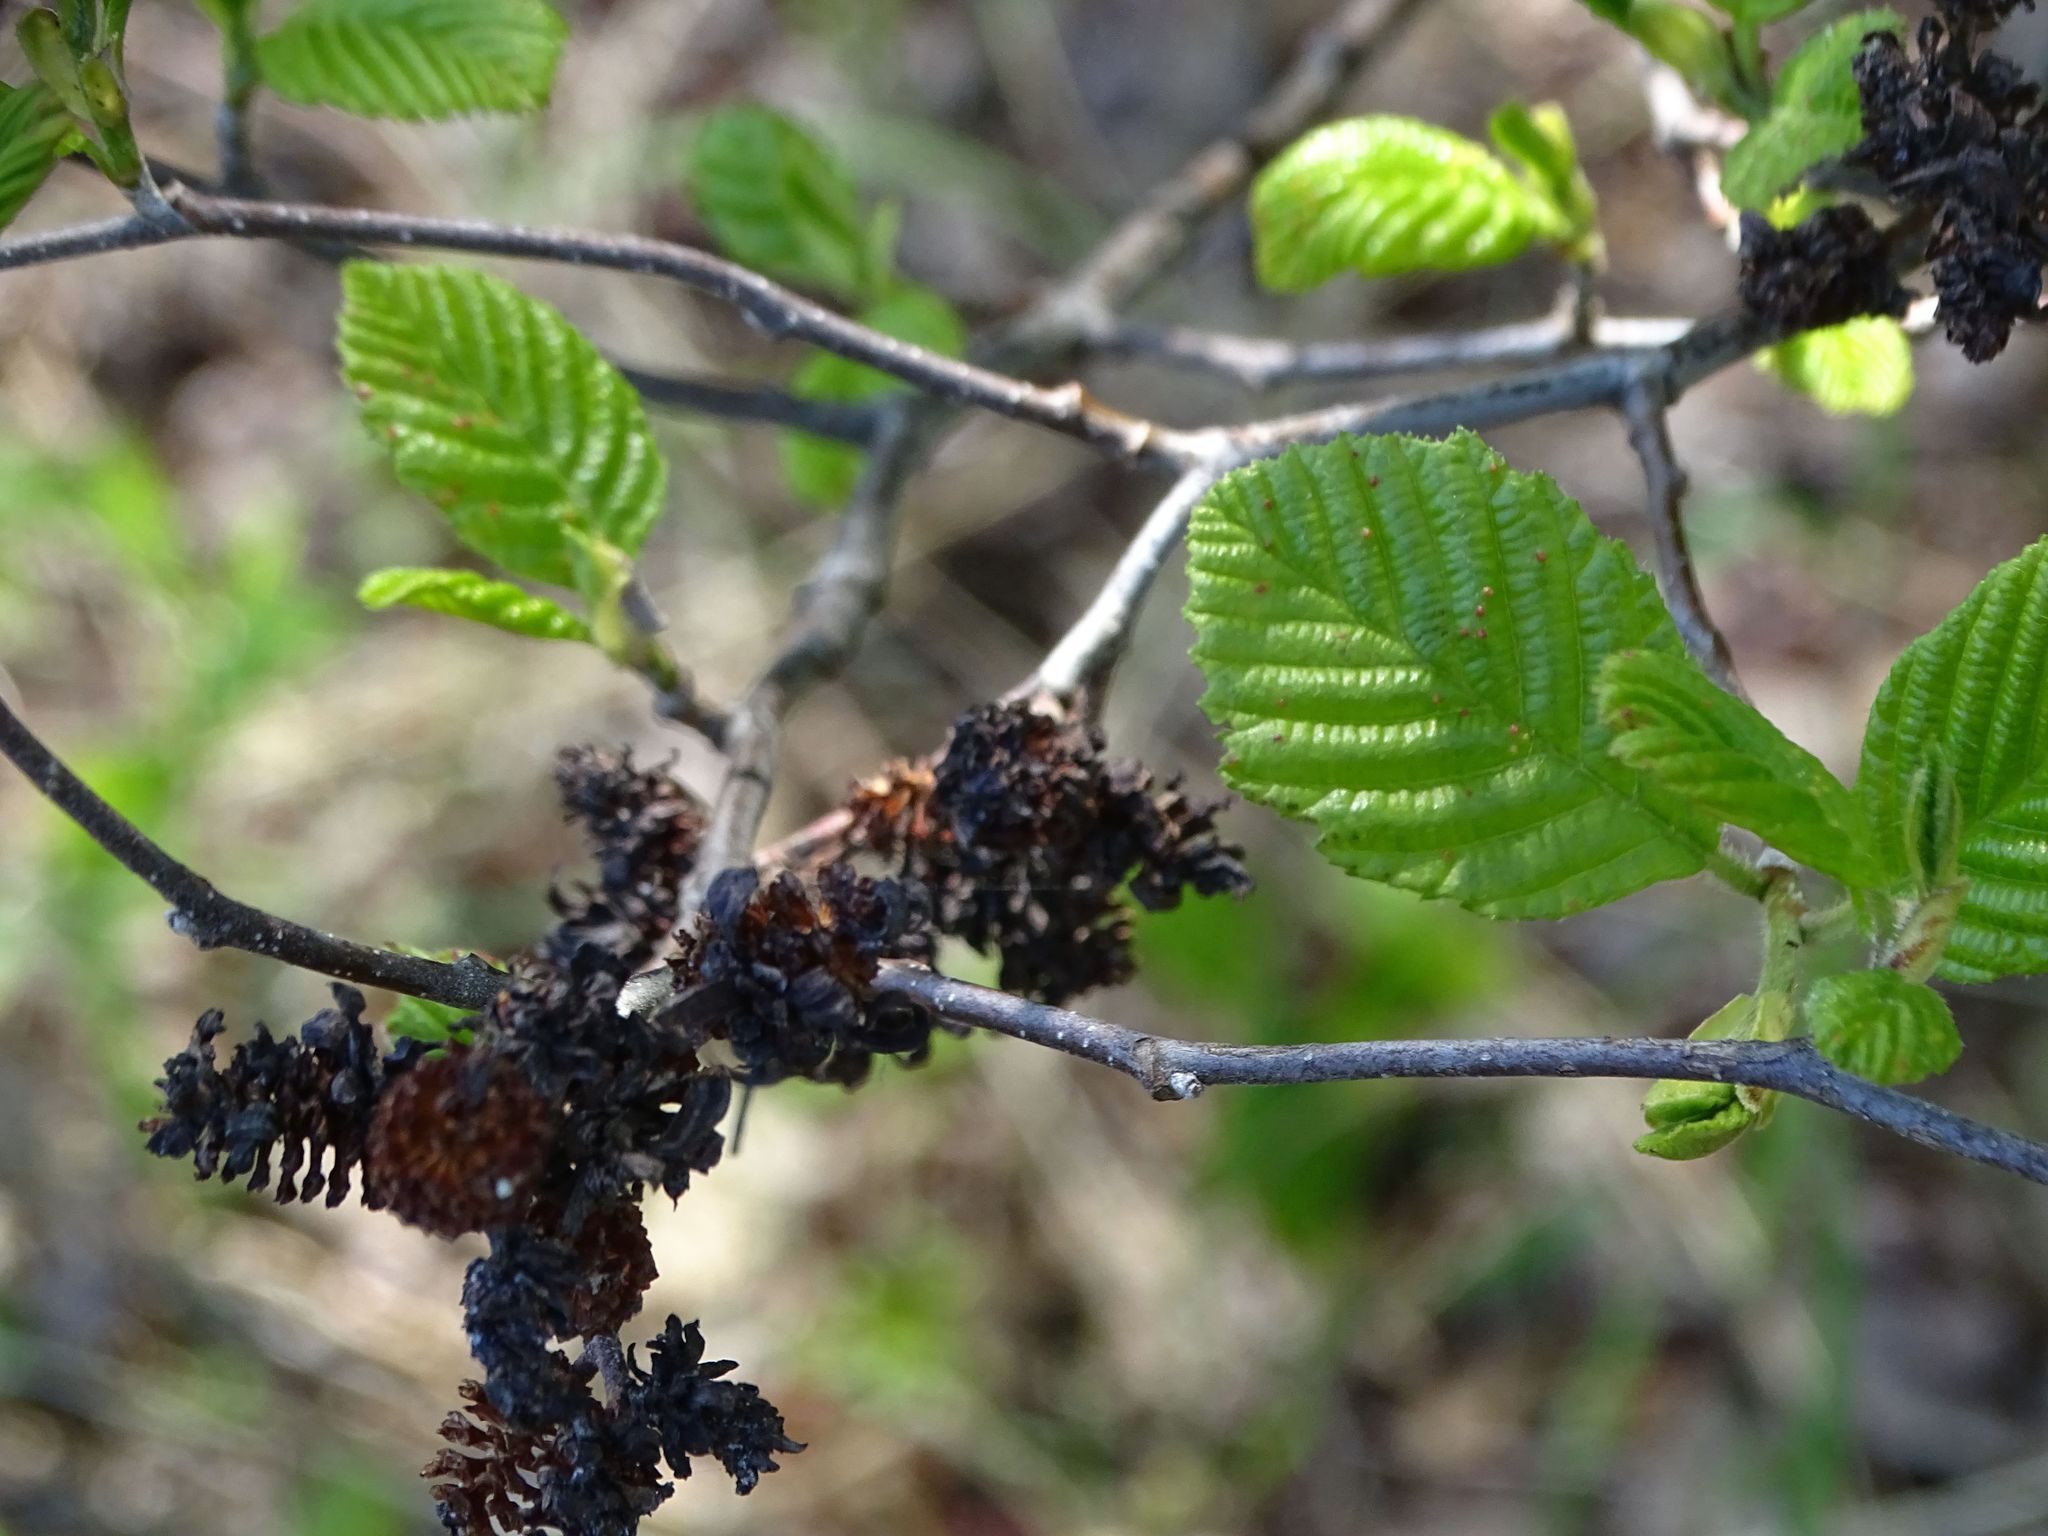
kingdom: Plantae
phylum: Tracheophyta
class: Magnoliopsida
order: Fagales
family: Betulaceae
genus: Alnus
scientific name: Alnus incana
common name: Grey alder
